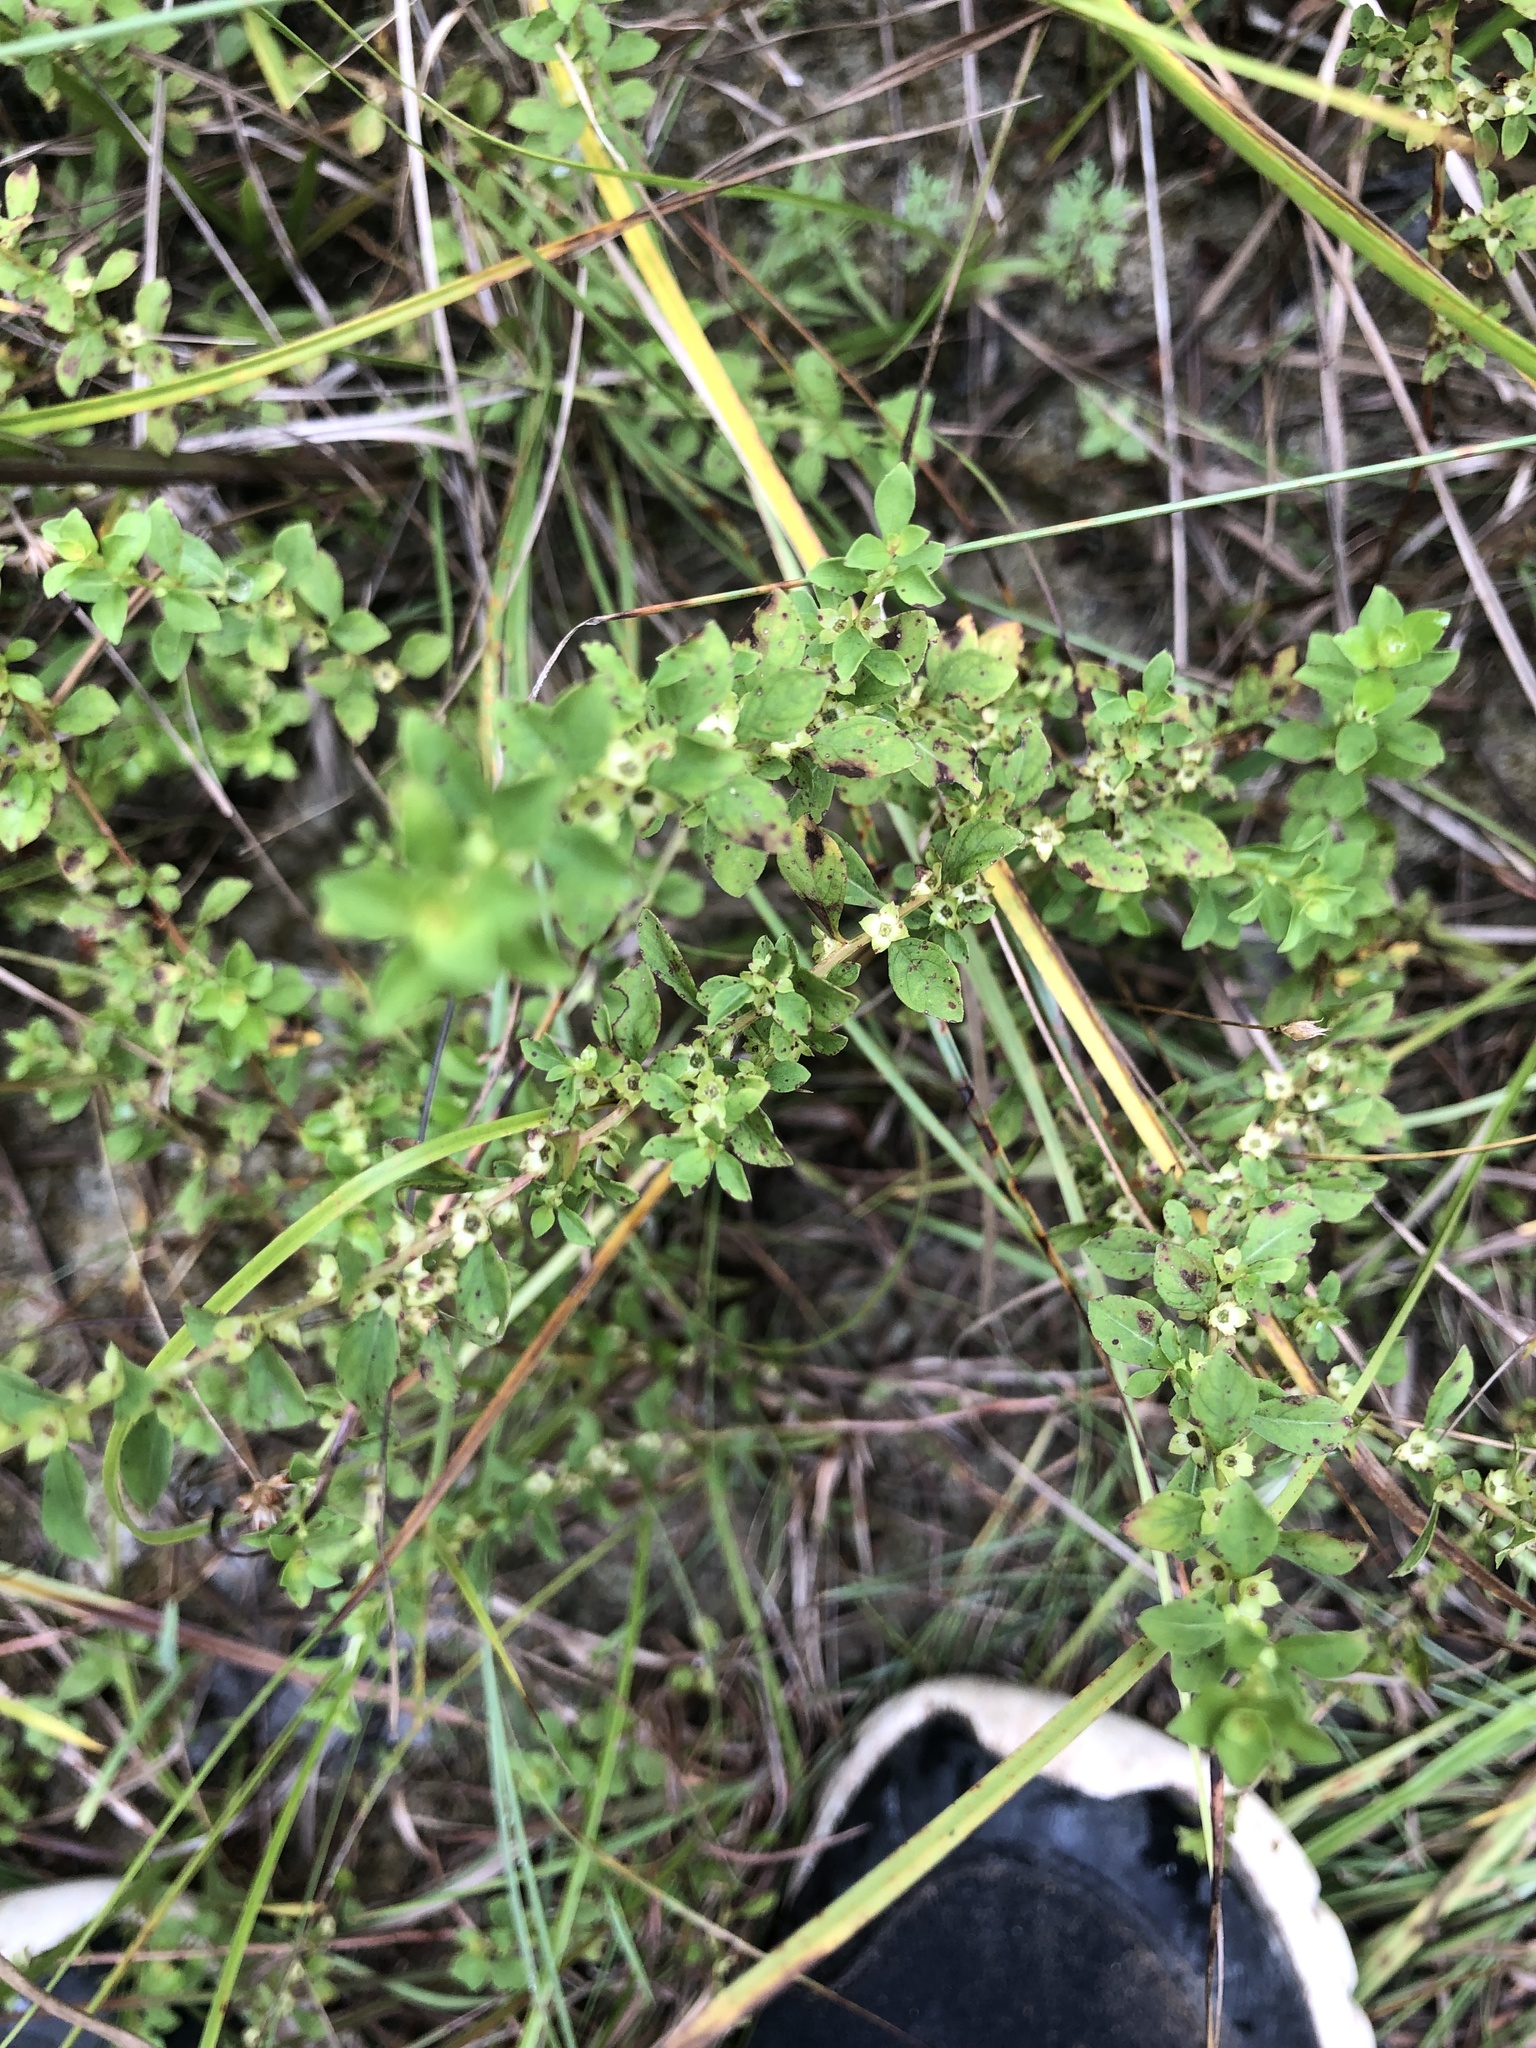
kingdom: Plantae
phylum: Tracheophyta
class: Magnoliopsida
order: Myrtales
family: Onagraceae
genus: Ludwigia
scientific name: Ludwigia microcarpa
